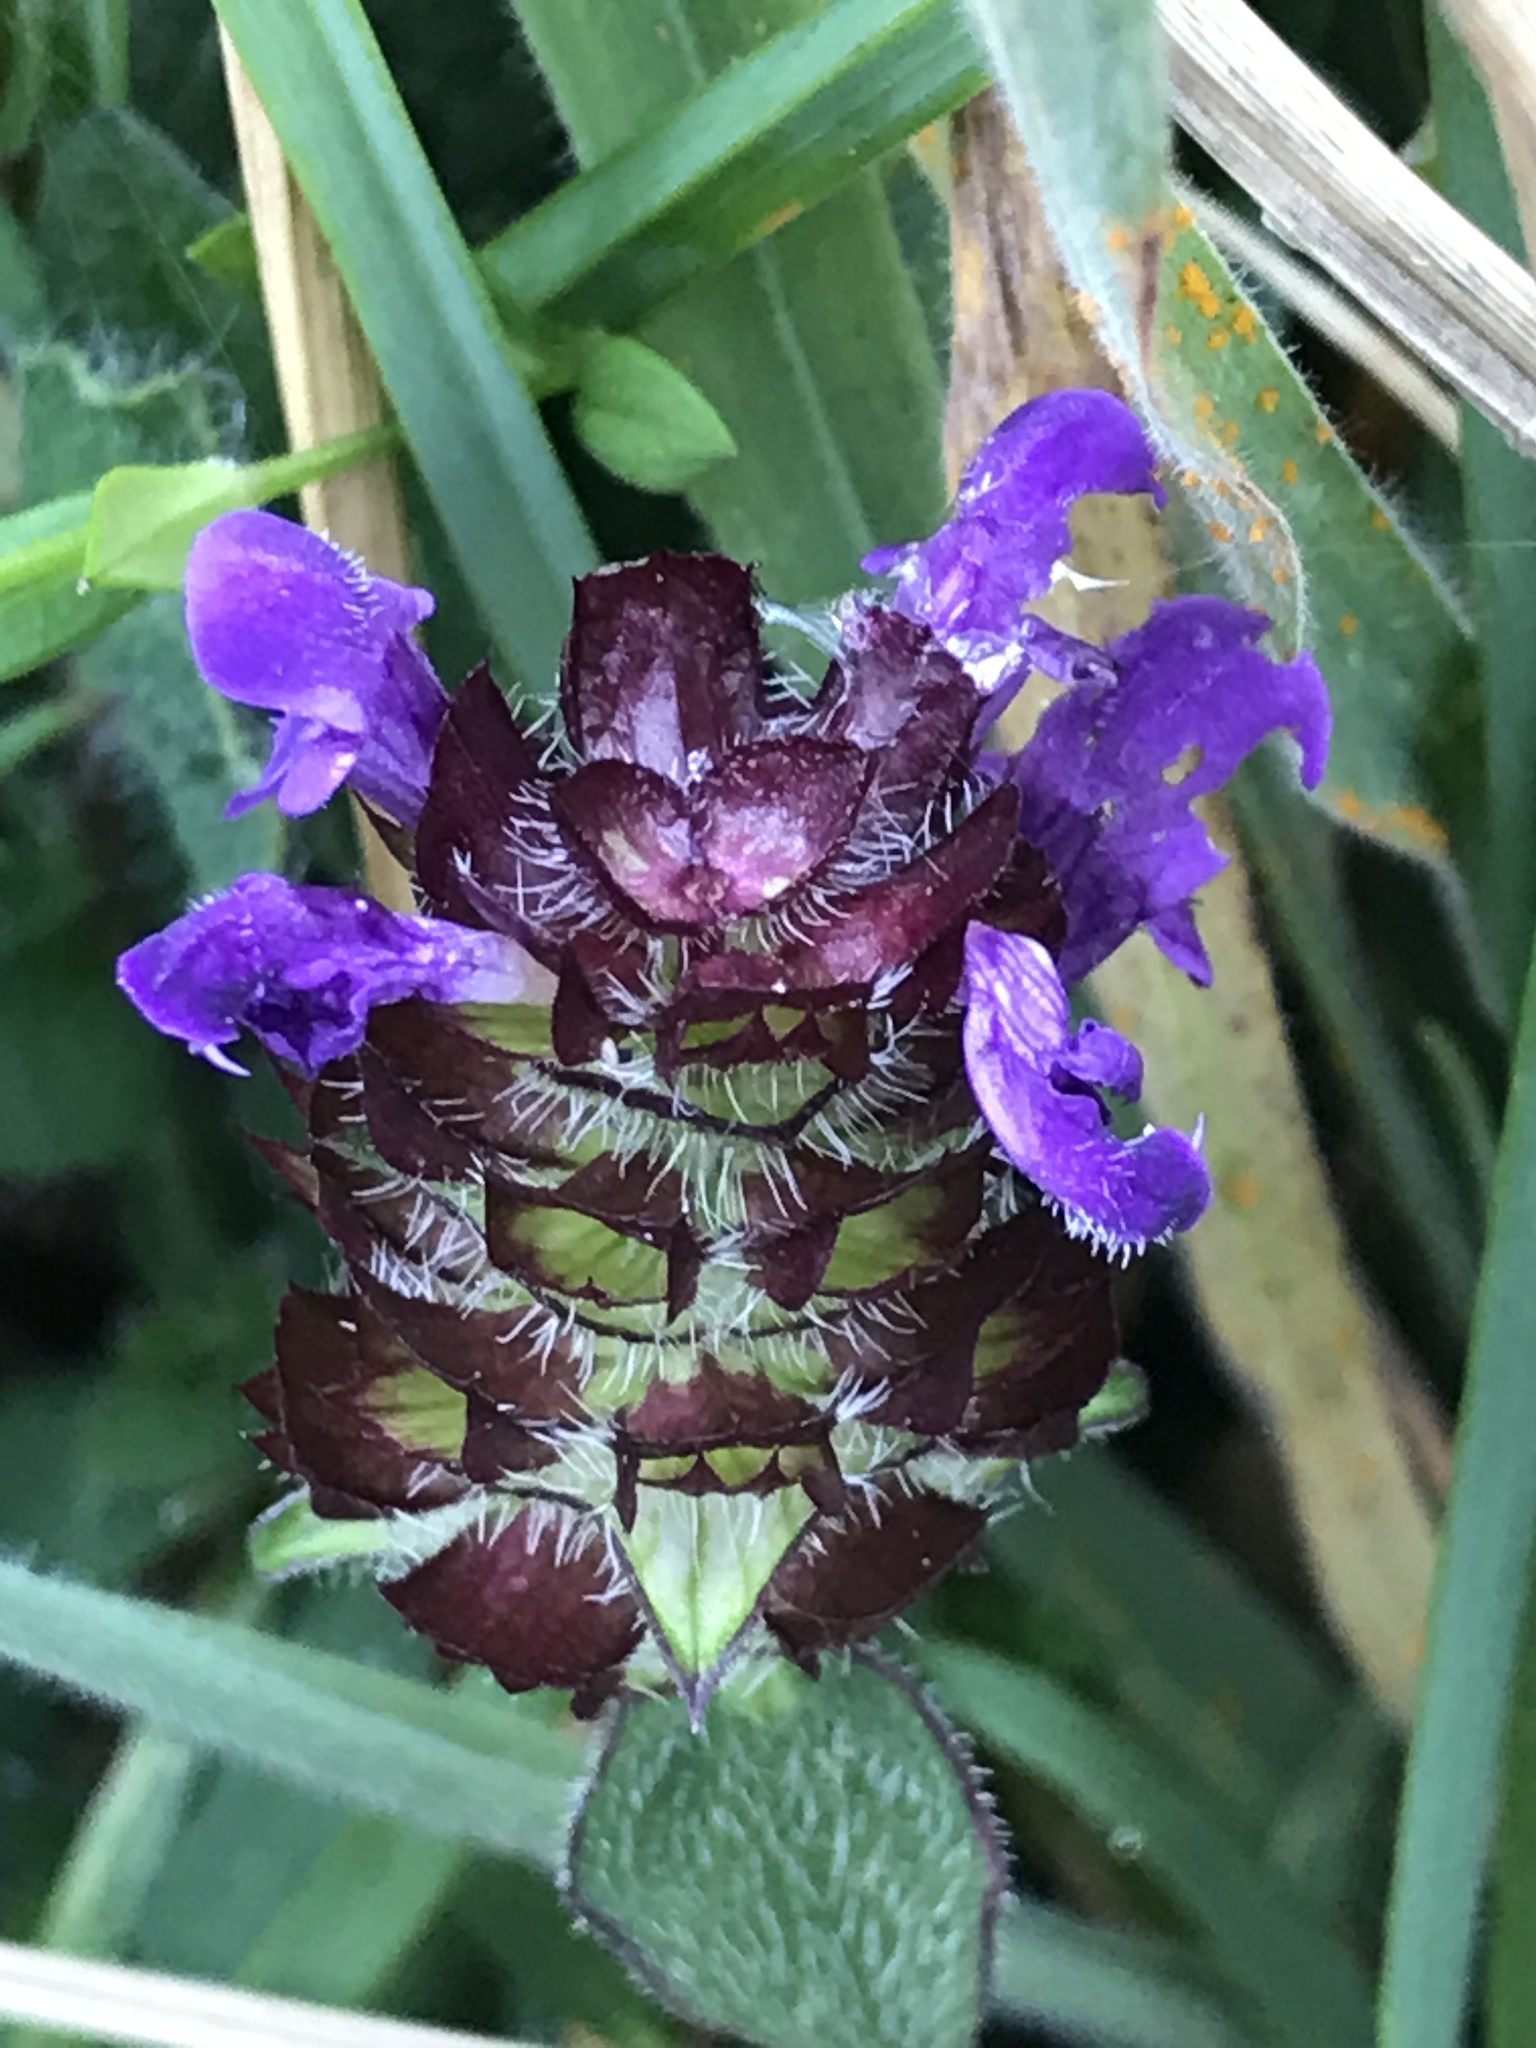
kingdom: Plantae
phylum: Tracheophyta
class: Magnoliopsida
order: Lamiales
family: Lamiaceae
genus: Prunella
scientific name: Prunella vulgaris
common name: Heal-all
